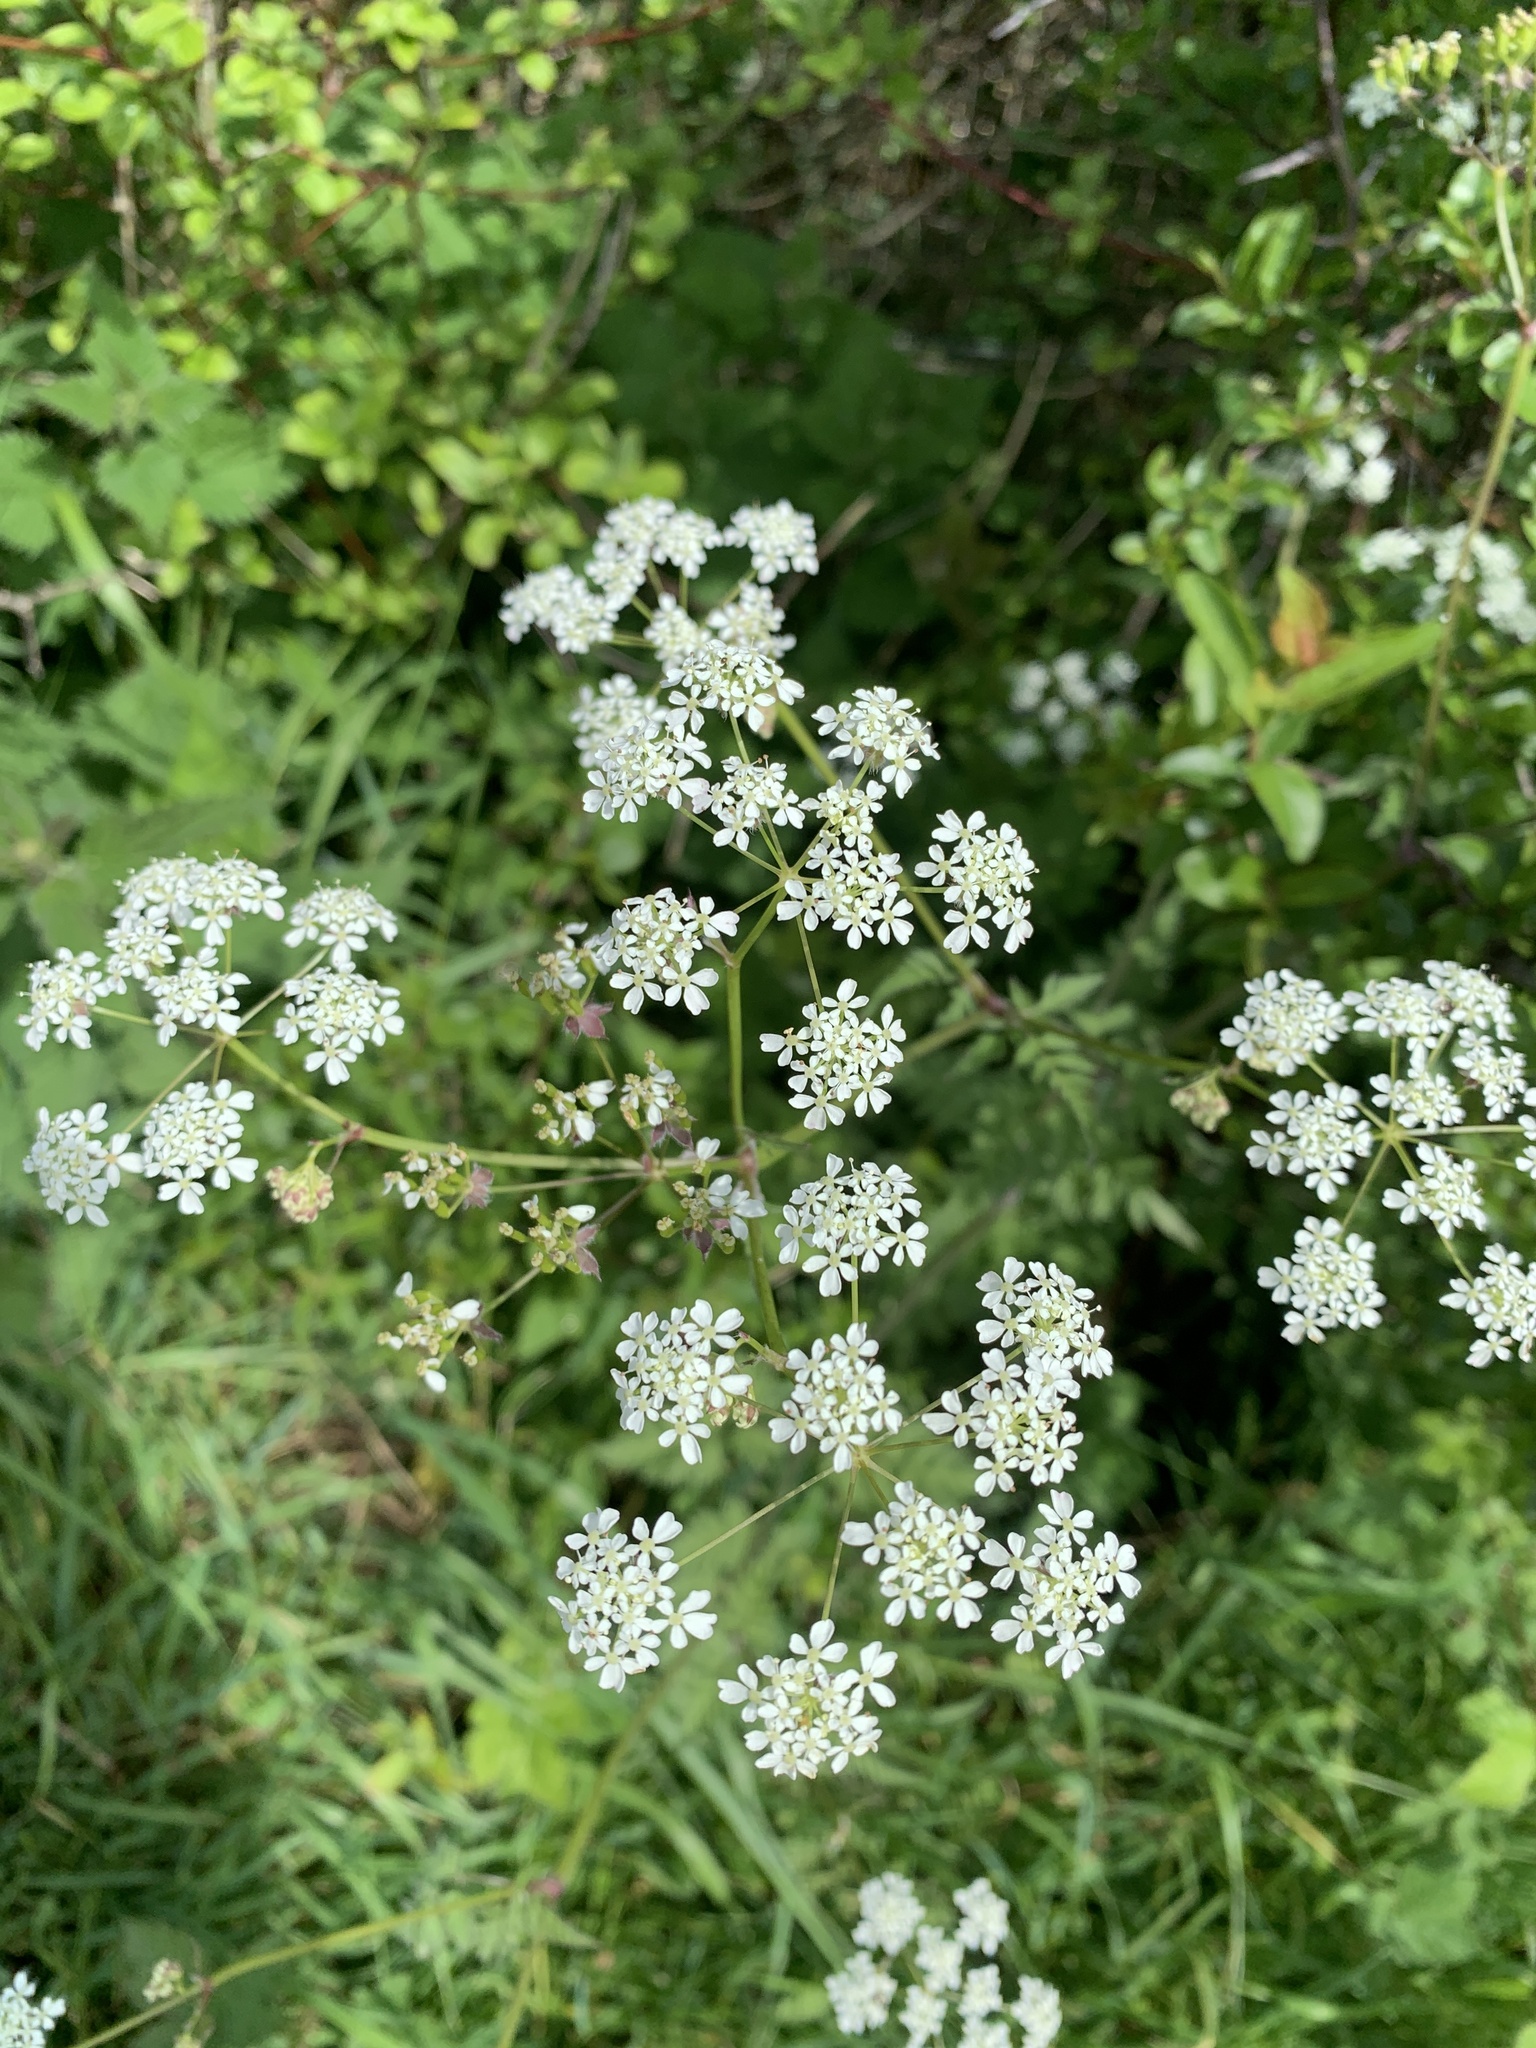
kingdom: Plantae
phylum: Tracheophyta
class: Magnoliopsida
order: Apiales
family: Apiaceae
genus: Anthriscus
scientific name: Anthriscus sylvestris
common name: Cow parsley
